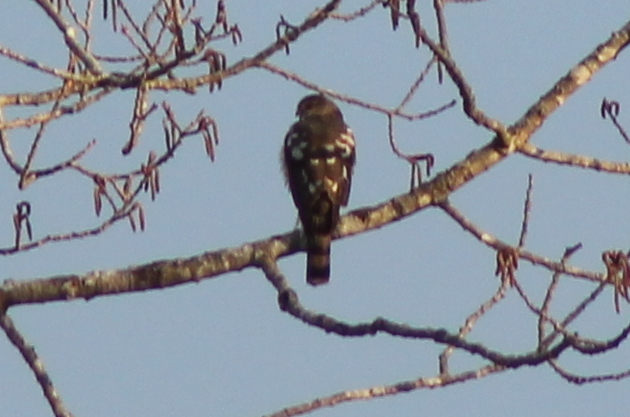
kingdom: Animalia
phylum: Chordata
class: Aves
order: Accipitriformes
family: Accipitridae
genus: Accipiter
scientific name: Accipiter striatus
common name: Sharp-shinned hawk
